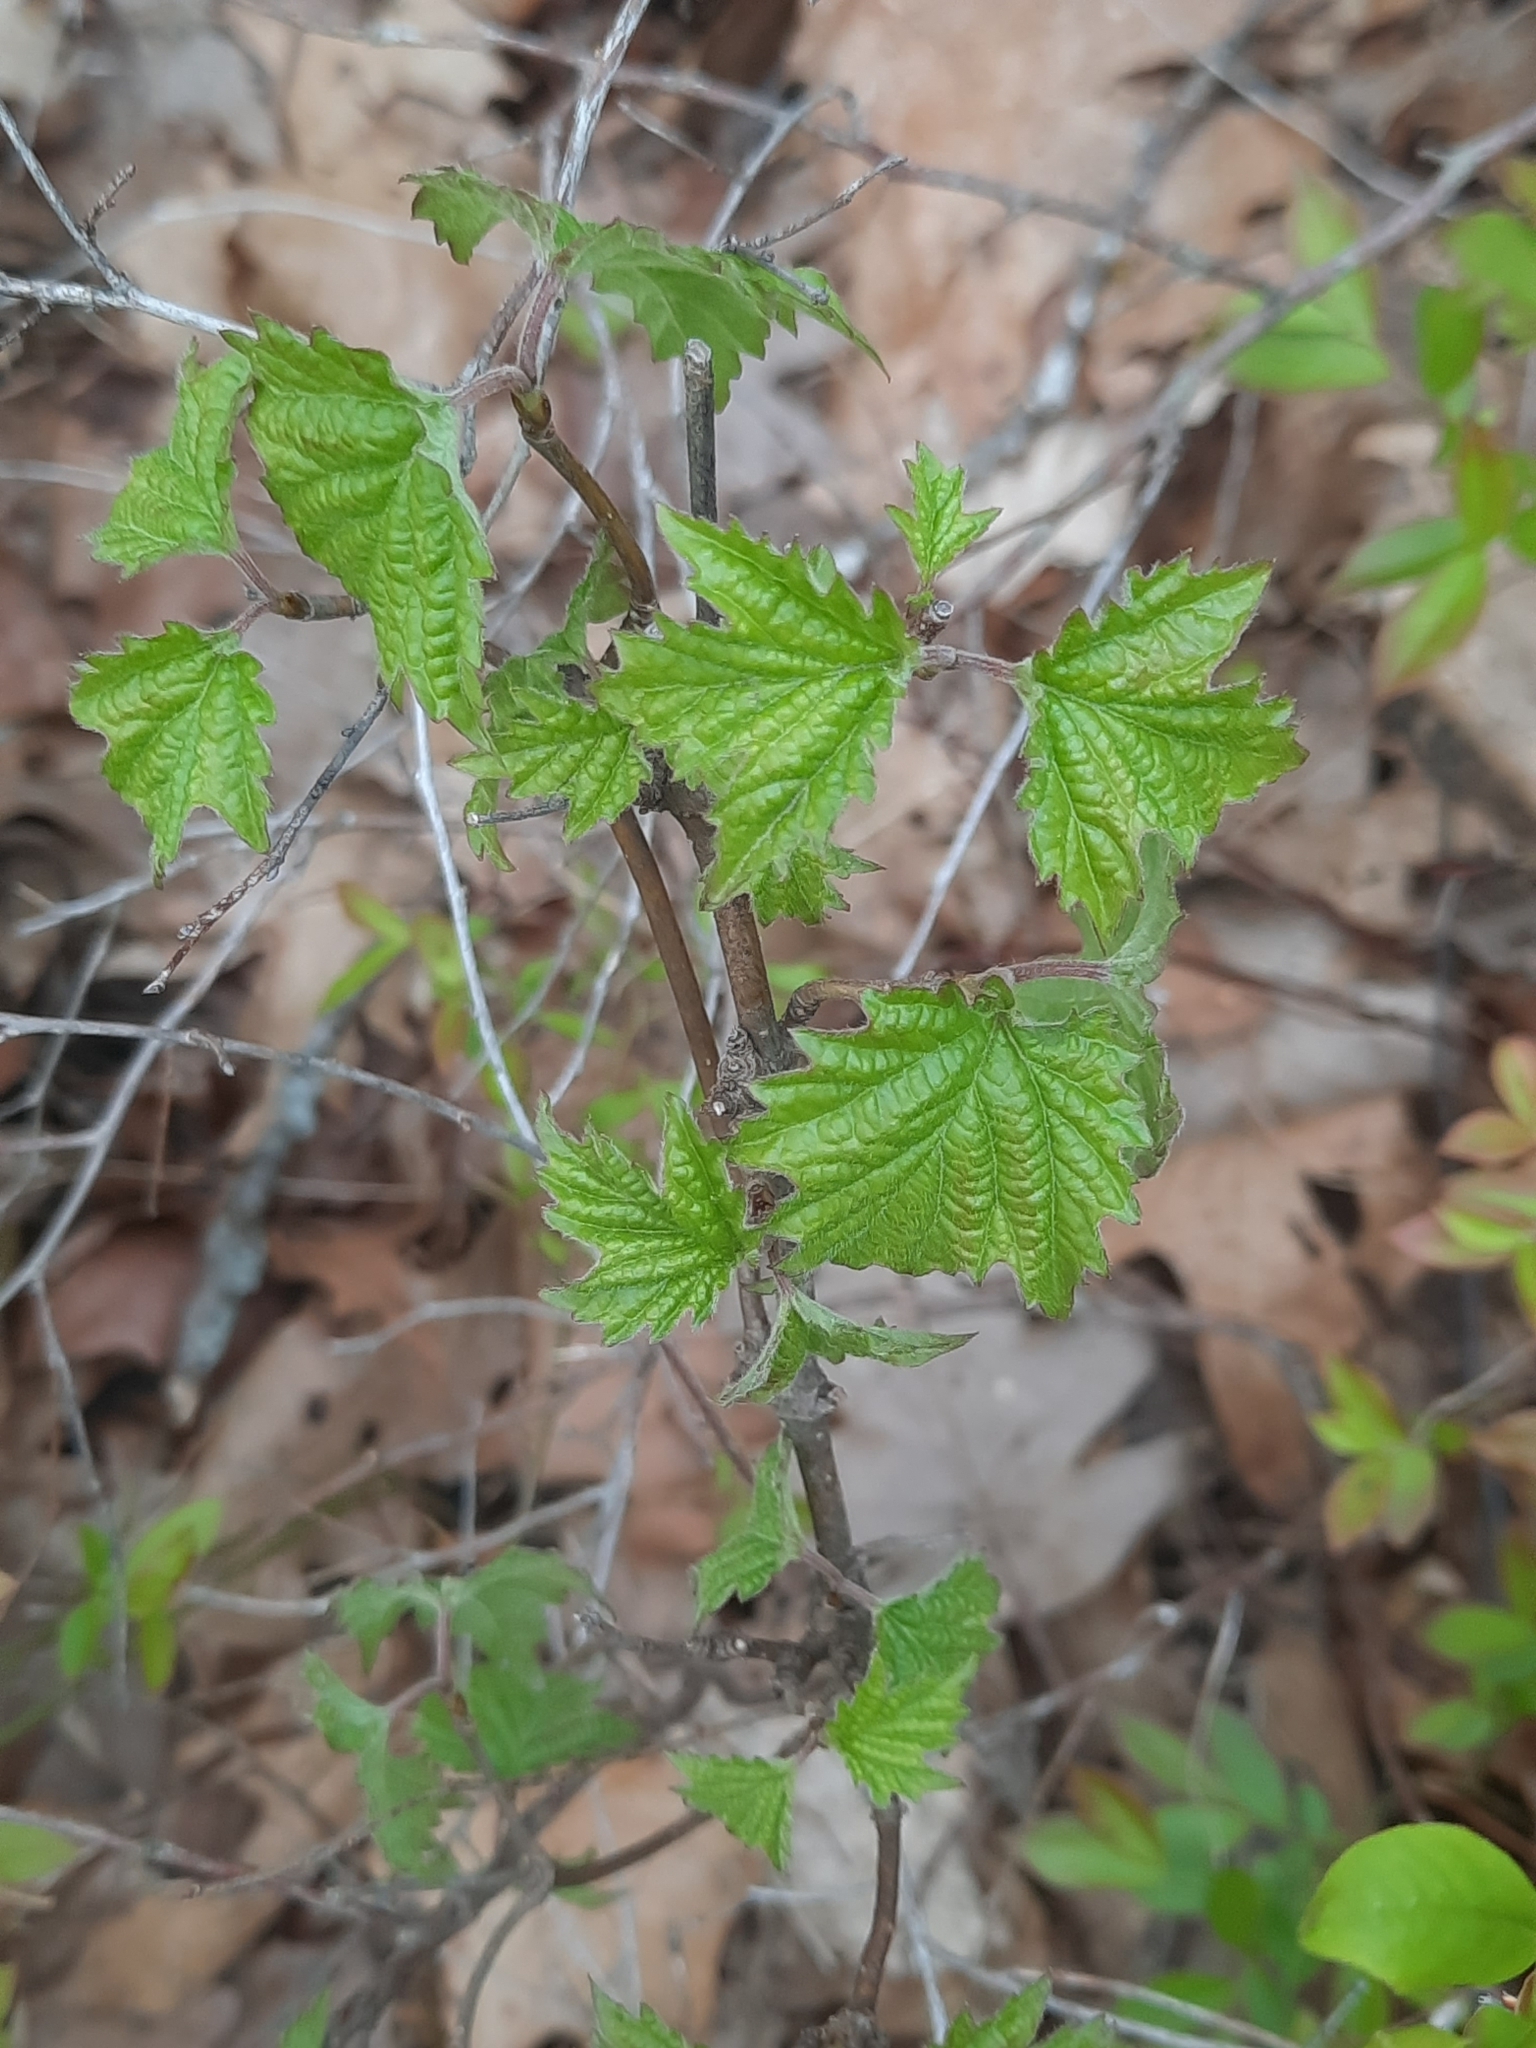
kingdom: Plantae
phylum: Tracheophyta
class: Magnoliopsida
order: Dipsacales
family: Viburnaceae
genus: Viburnum
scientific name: Viburnum acerifolium
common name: Dockmackie
